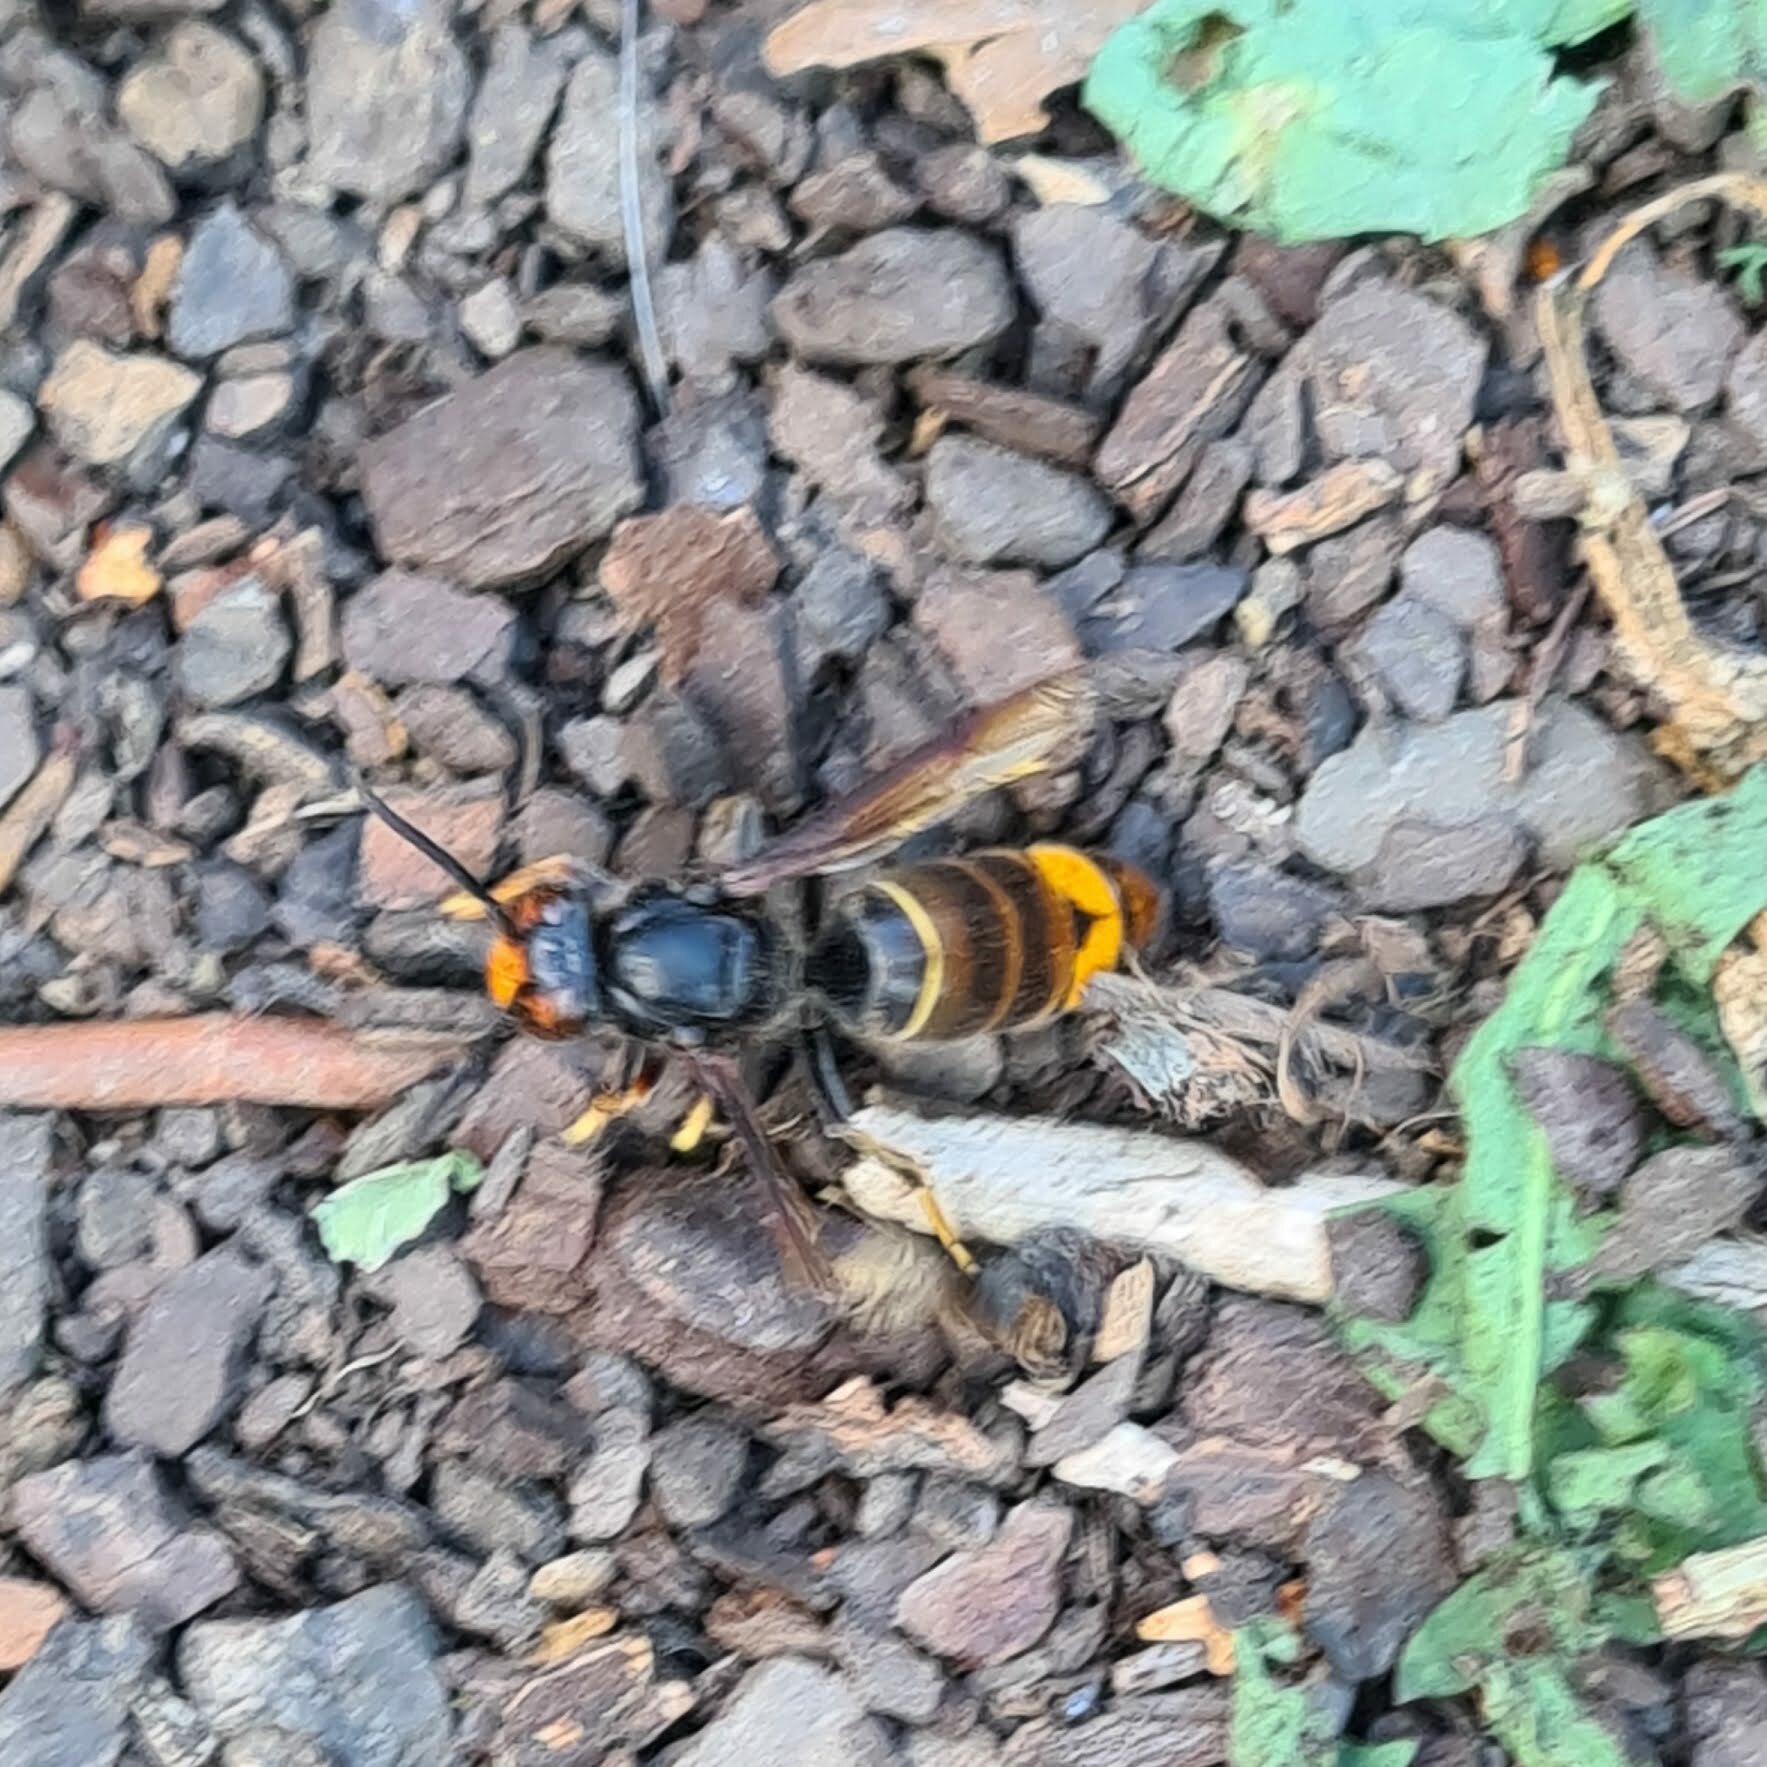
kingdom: Animalia
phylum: Arthropoda
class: Insecta
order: Hymenoptera
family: Vespidae
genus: Vespa
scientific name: Vespa velutina
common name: Asian hornet
